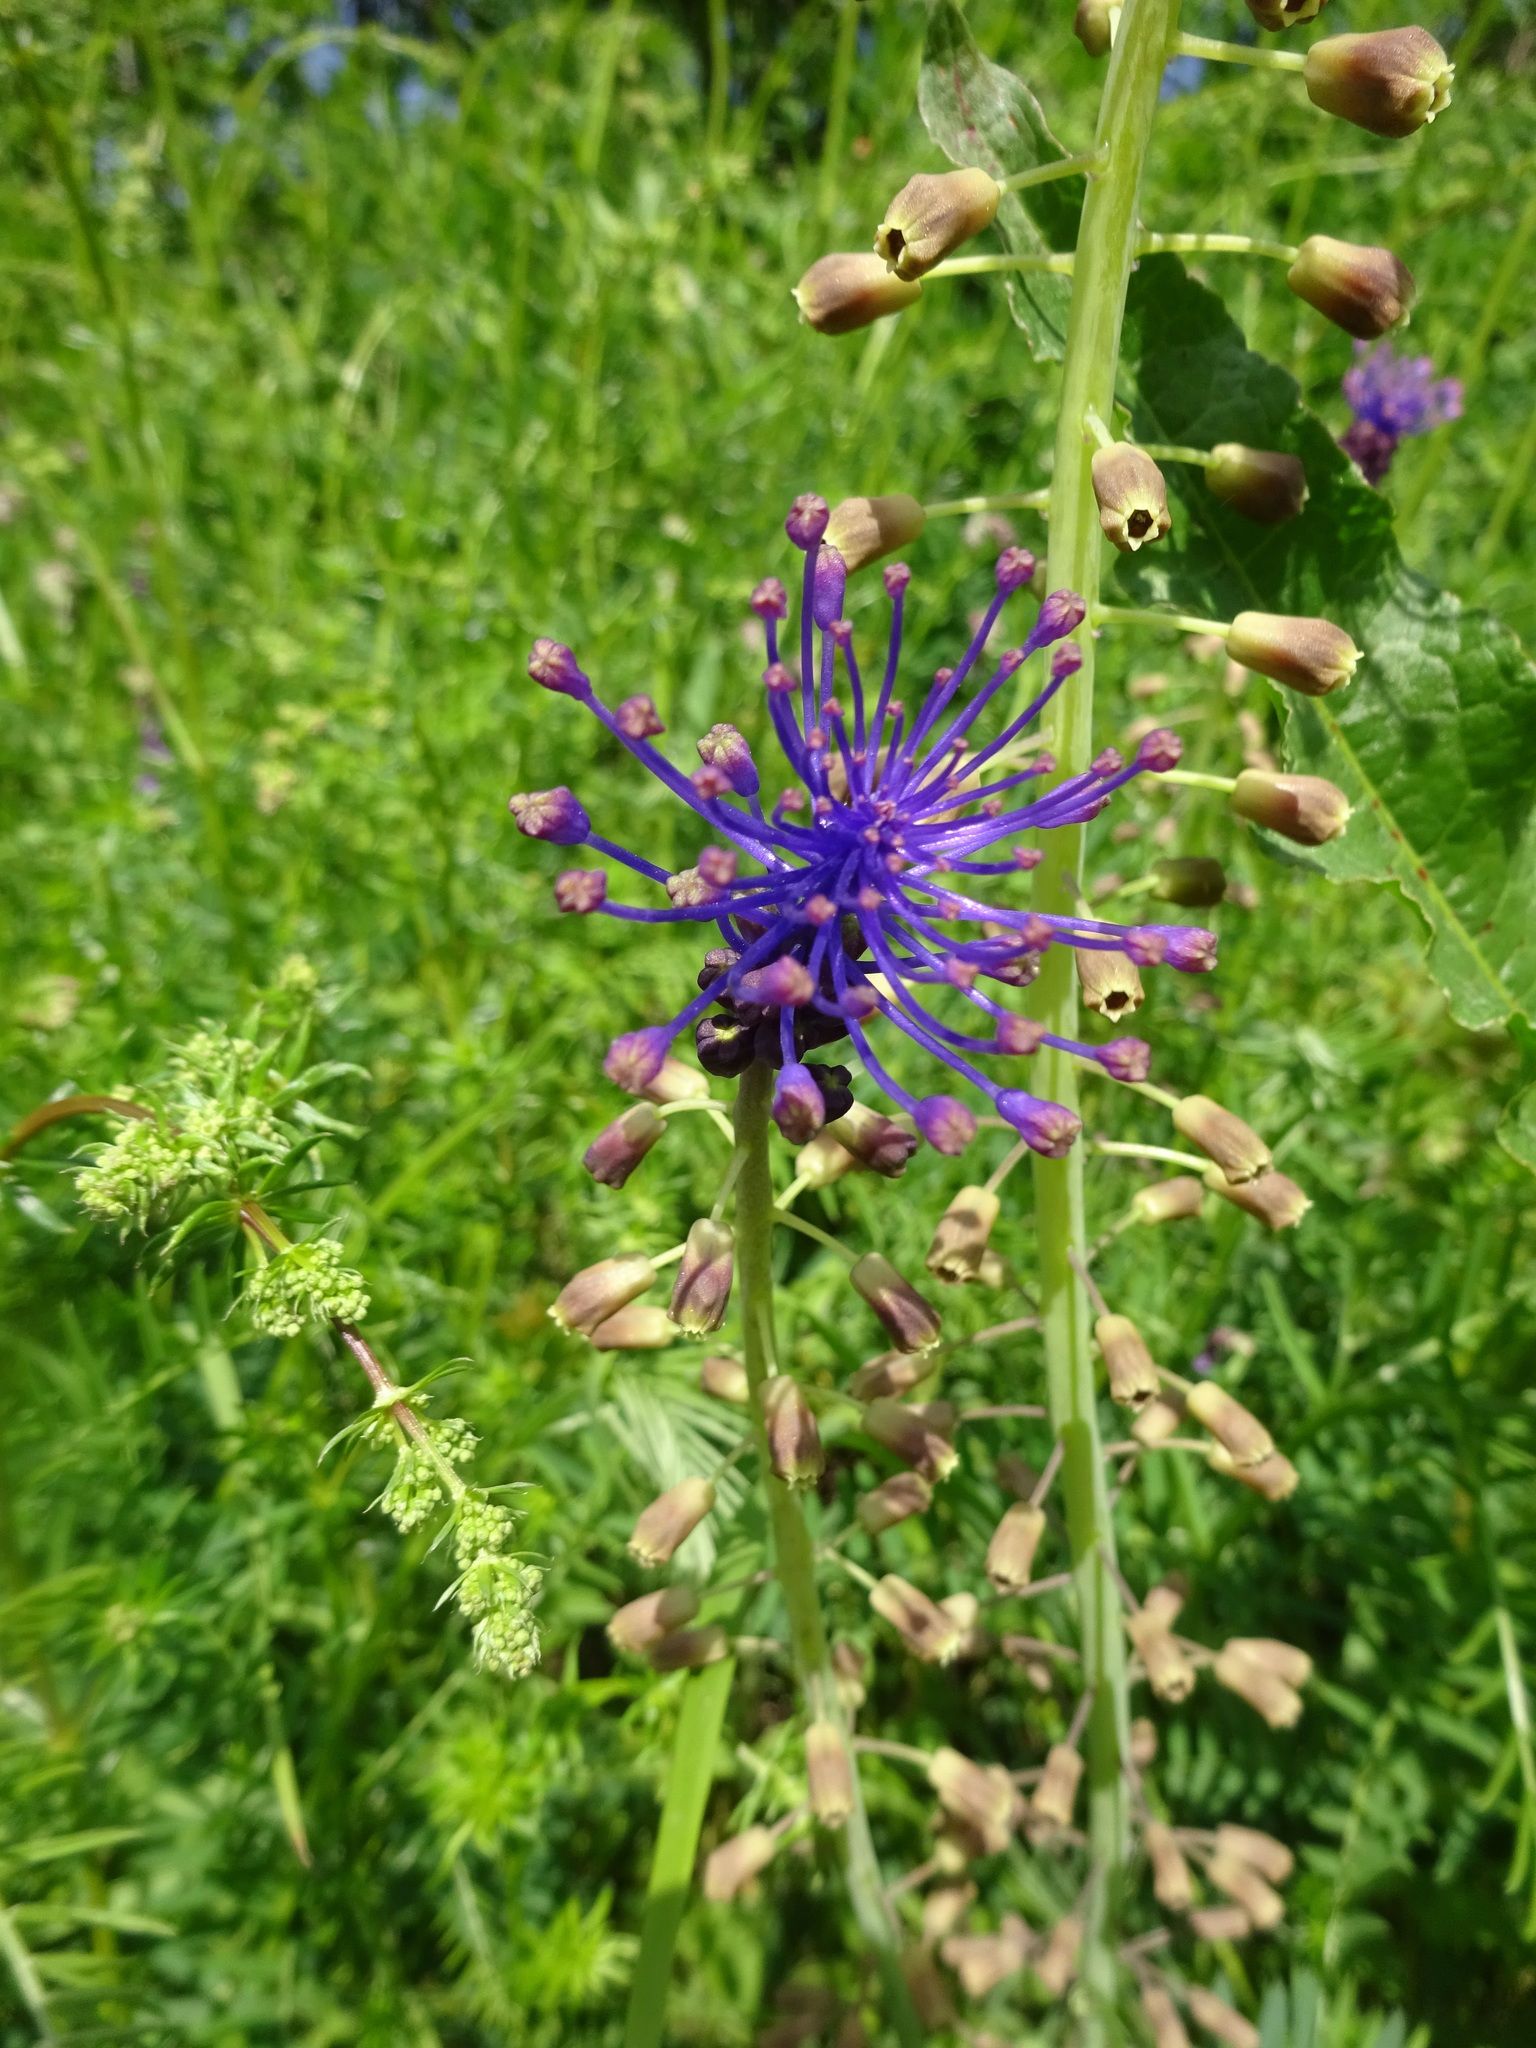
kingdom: Plantae
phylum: Tracheophyta
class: Liliopsida
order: Asparagales
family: Asparagaceae
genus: Muscari
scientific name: Muscari comosum
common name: Tassel hyacinth
